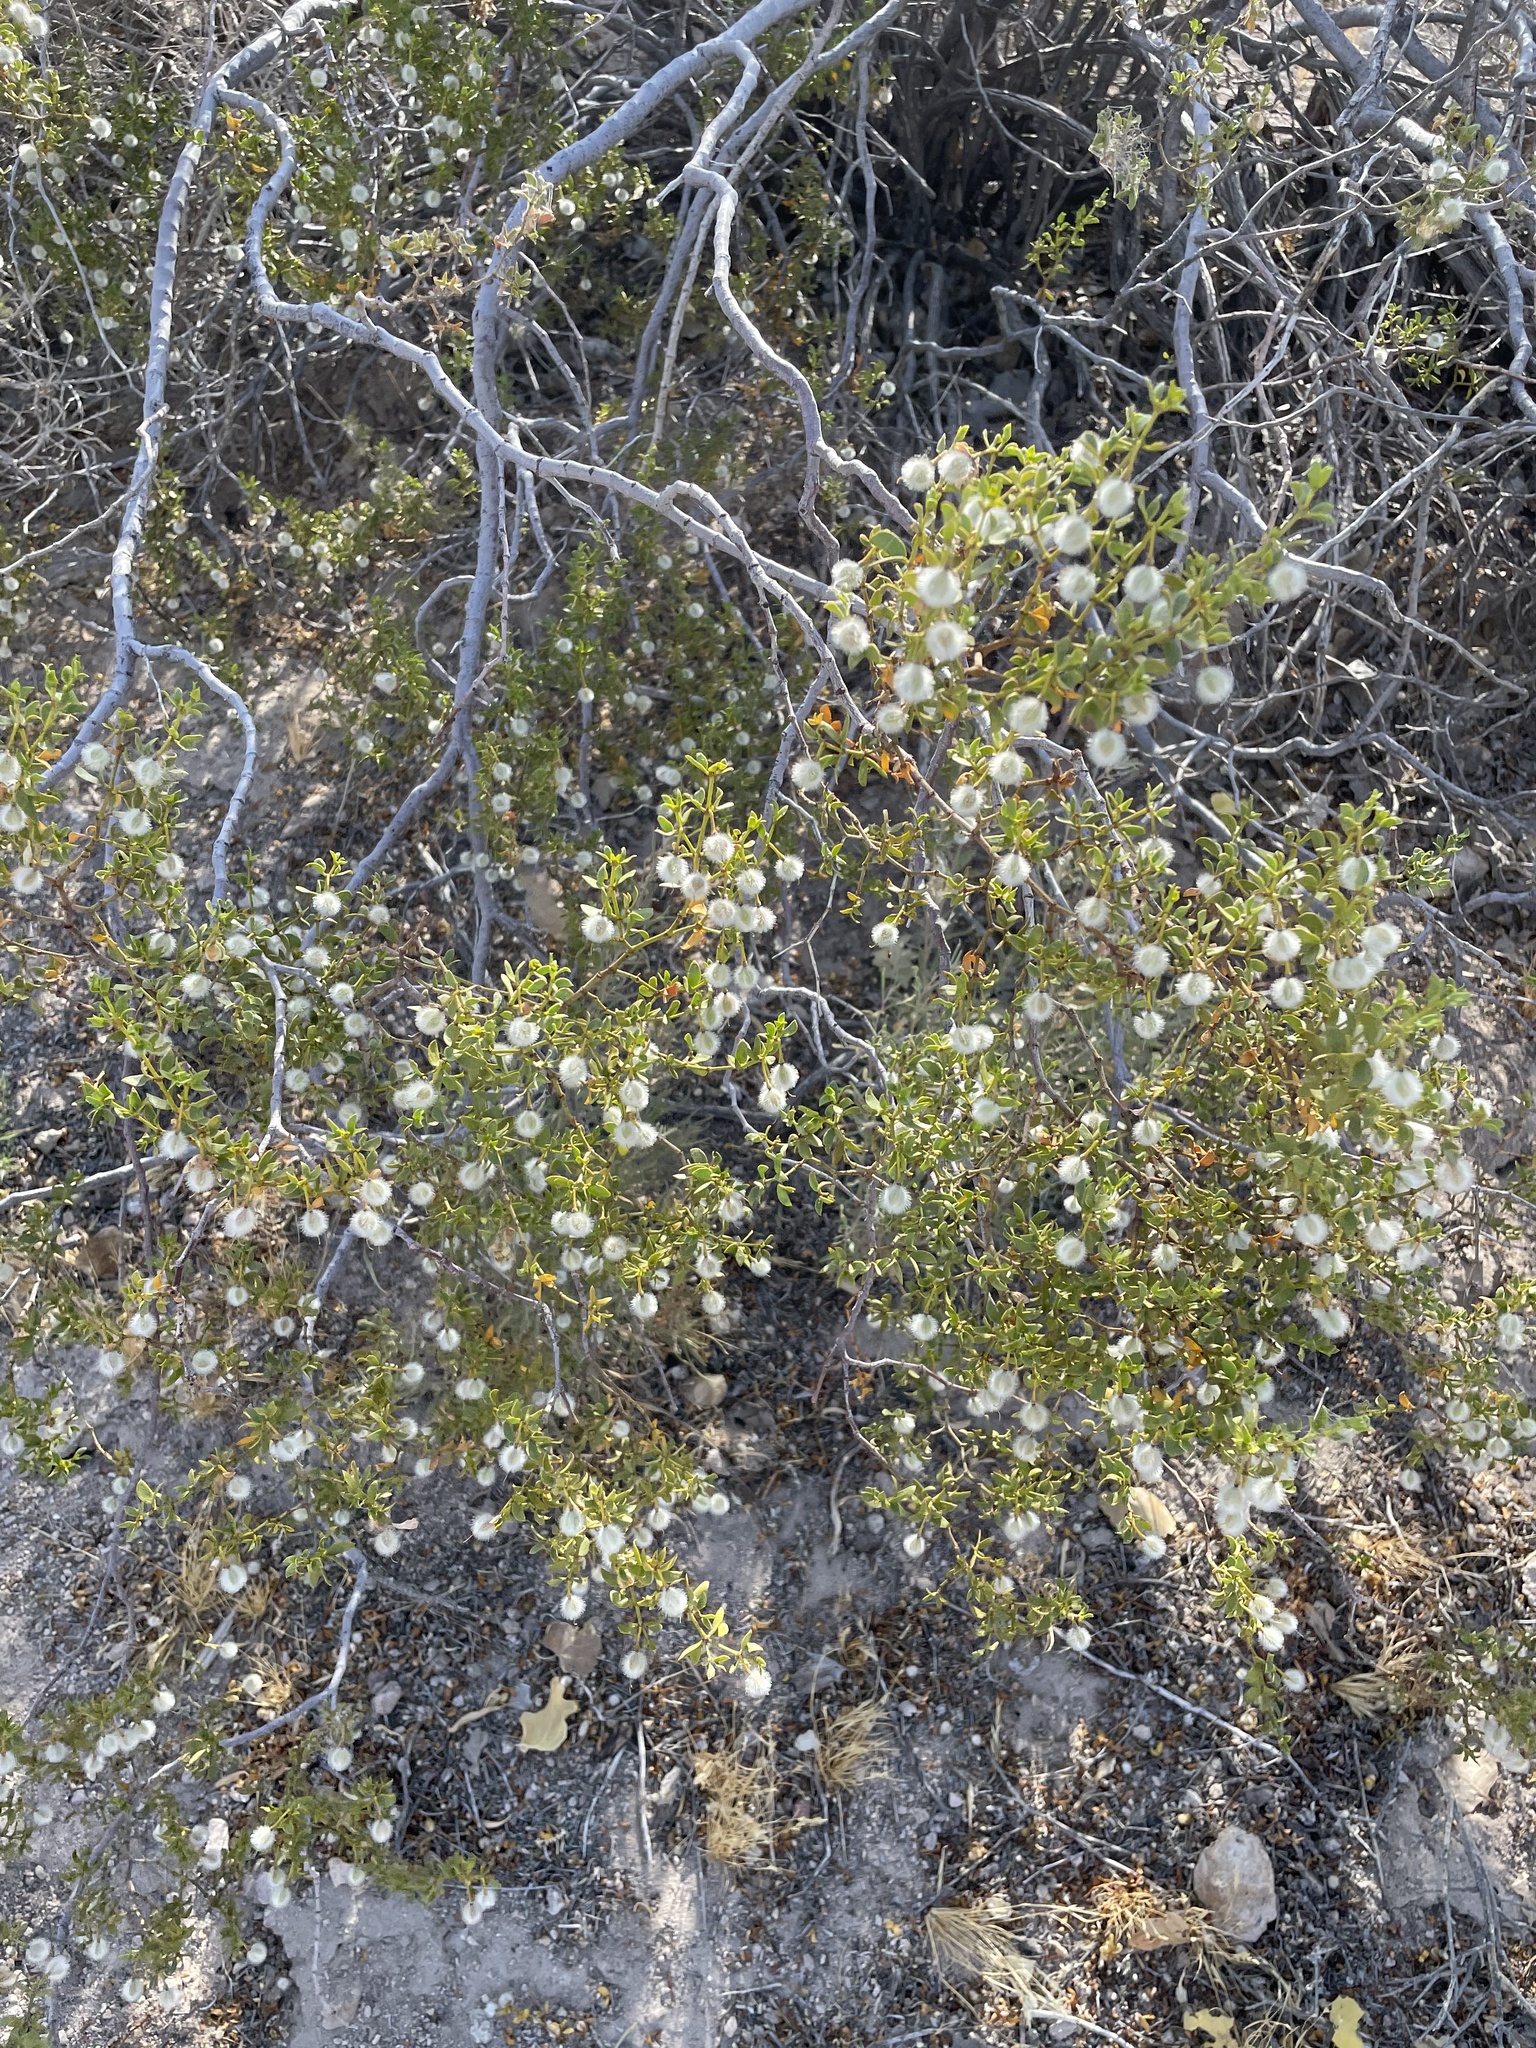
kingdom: Plantae
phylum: Tracheophyta
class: Magnoliopsida
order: Zygophyllales
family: Zygophyllaceae
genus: Larrea
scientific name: Larrea tridentata
